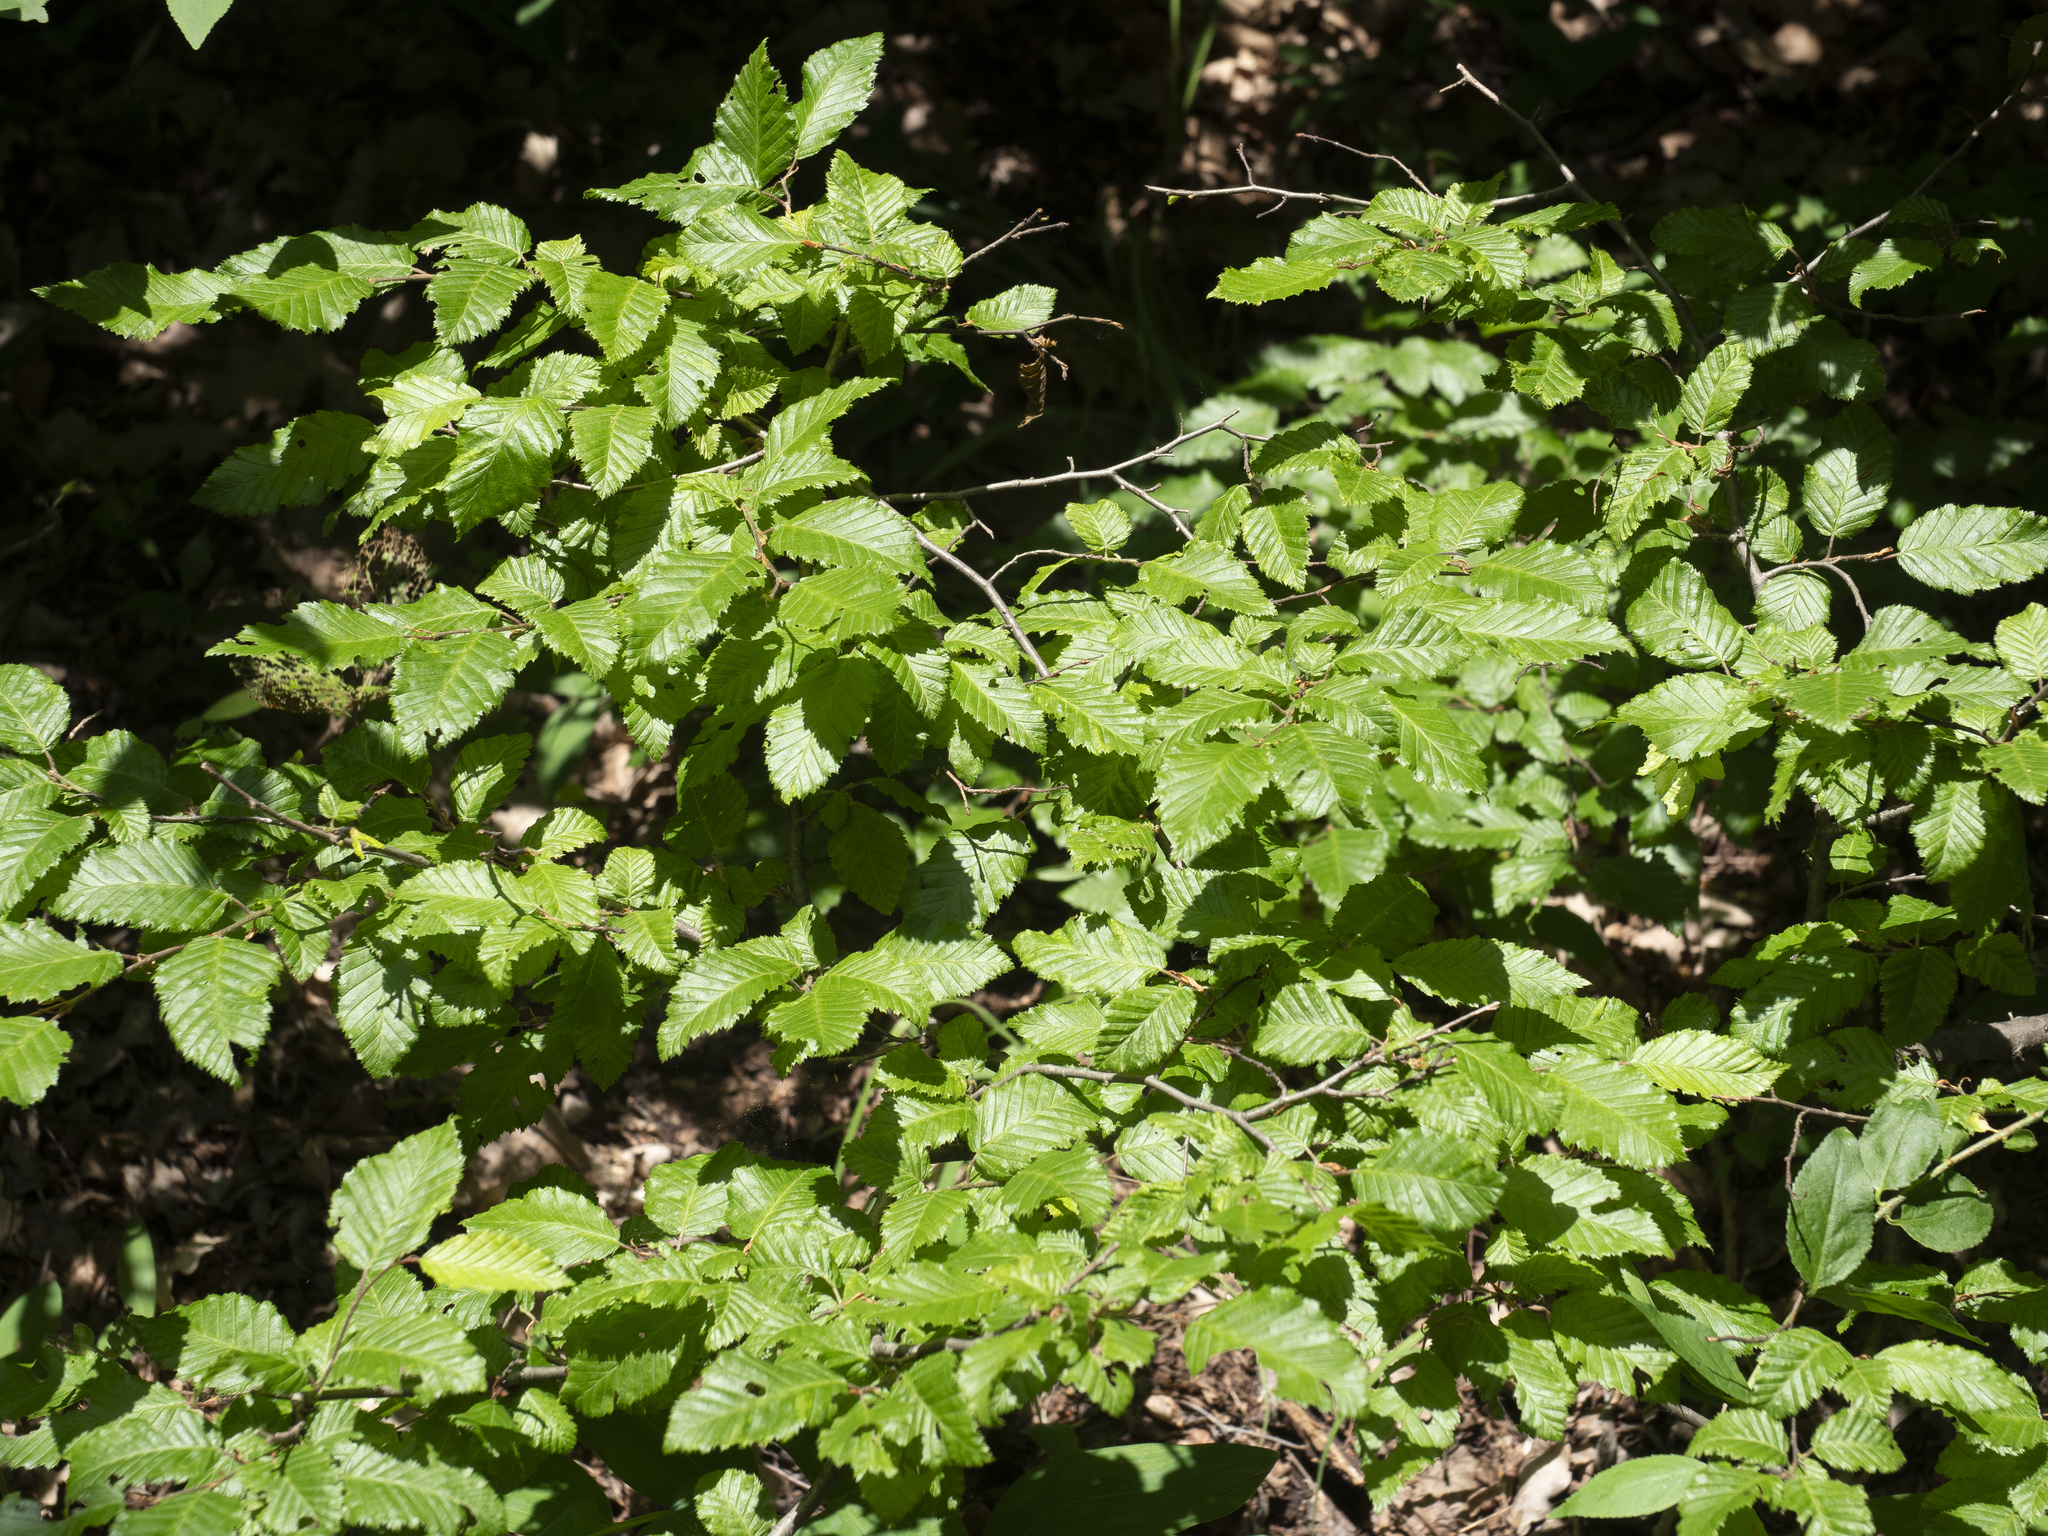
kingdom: Plantae
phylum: Tracheophyta
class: Magnoliopsida
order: Fagales
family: Betulaceae
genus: Carpinus
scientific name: Carpinus orientalis
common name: Eastern hornbeam
